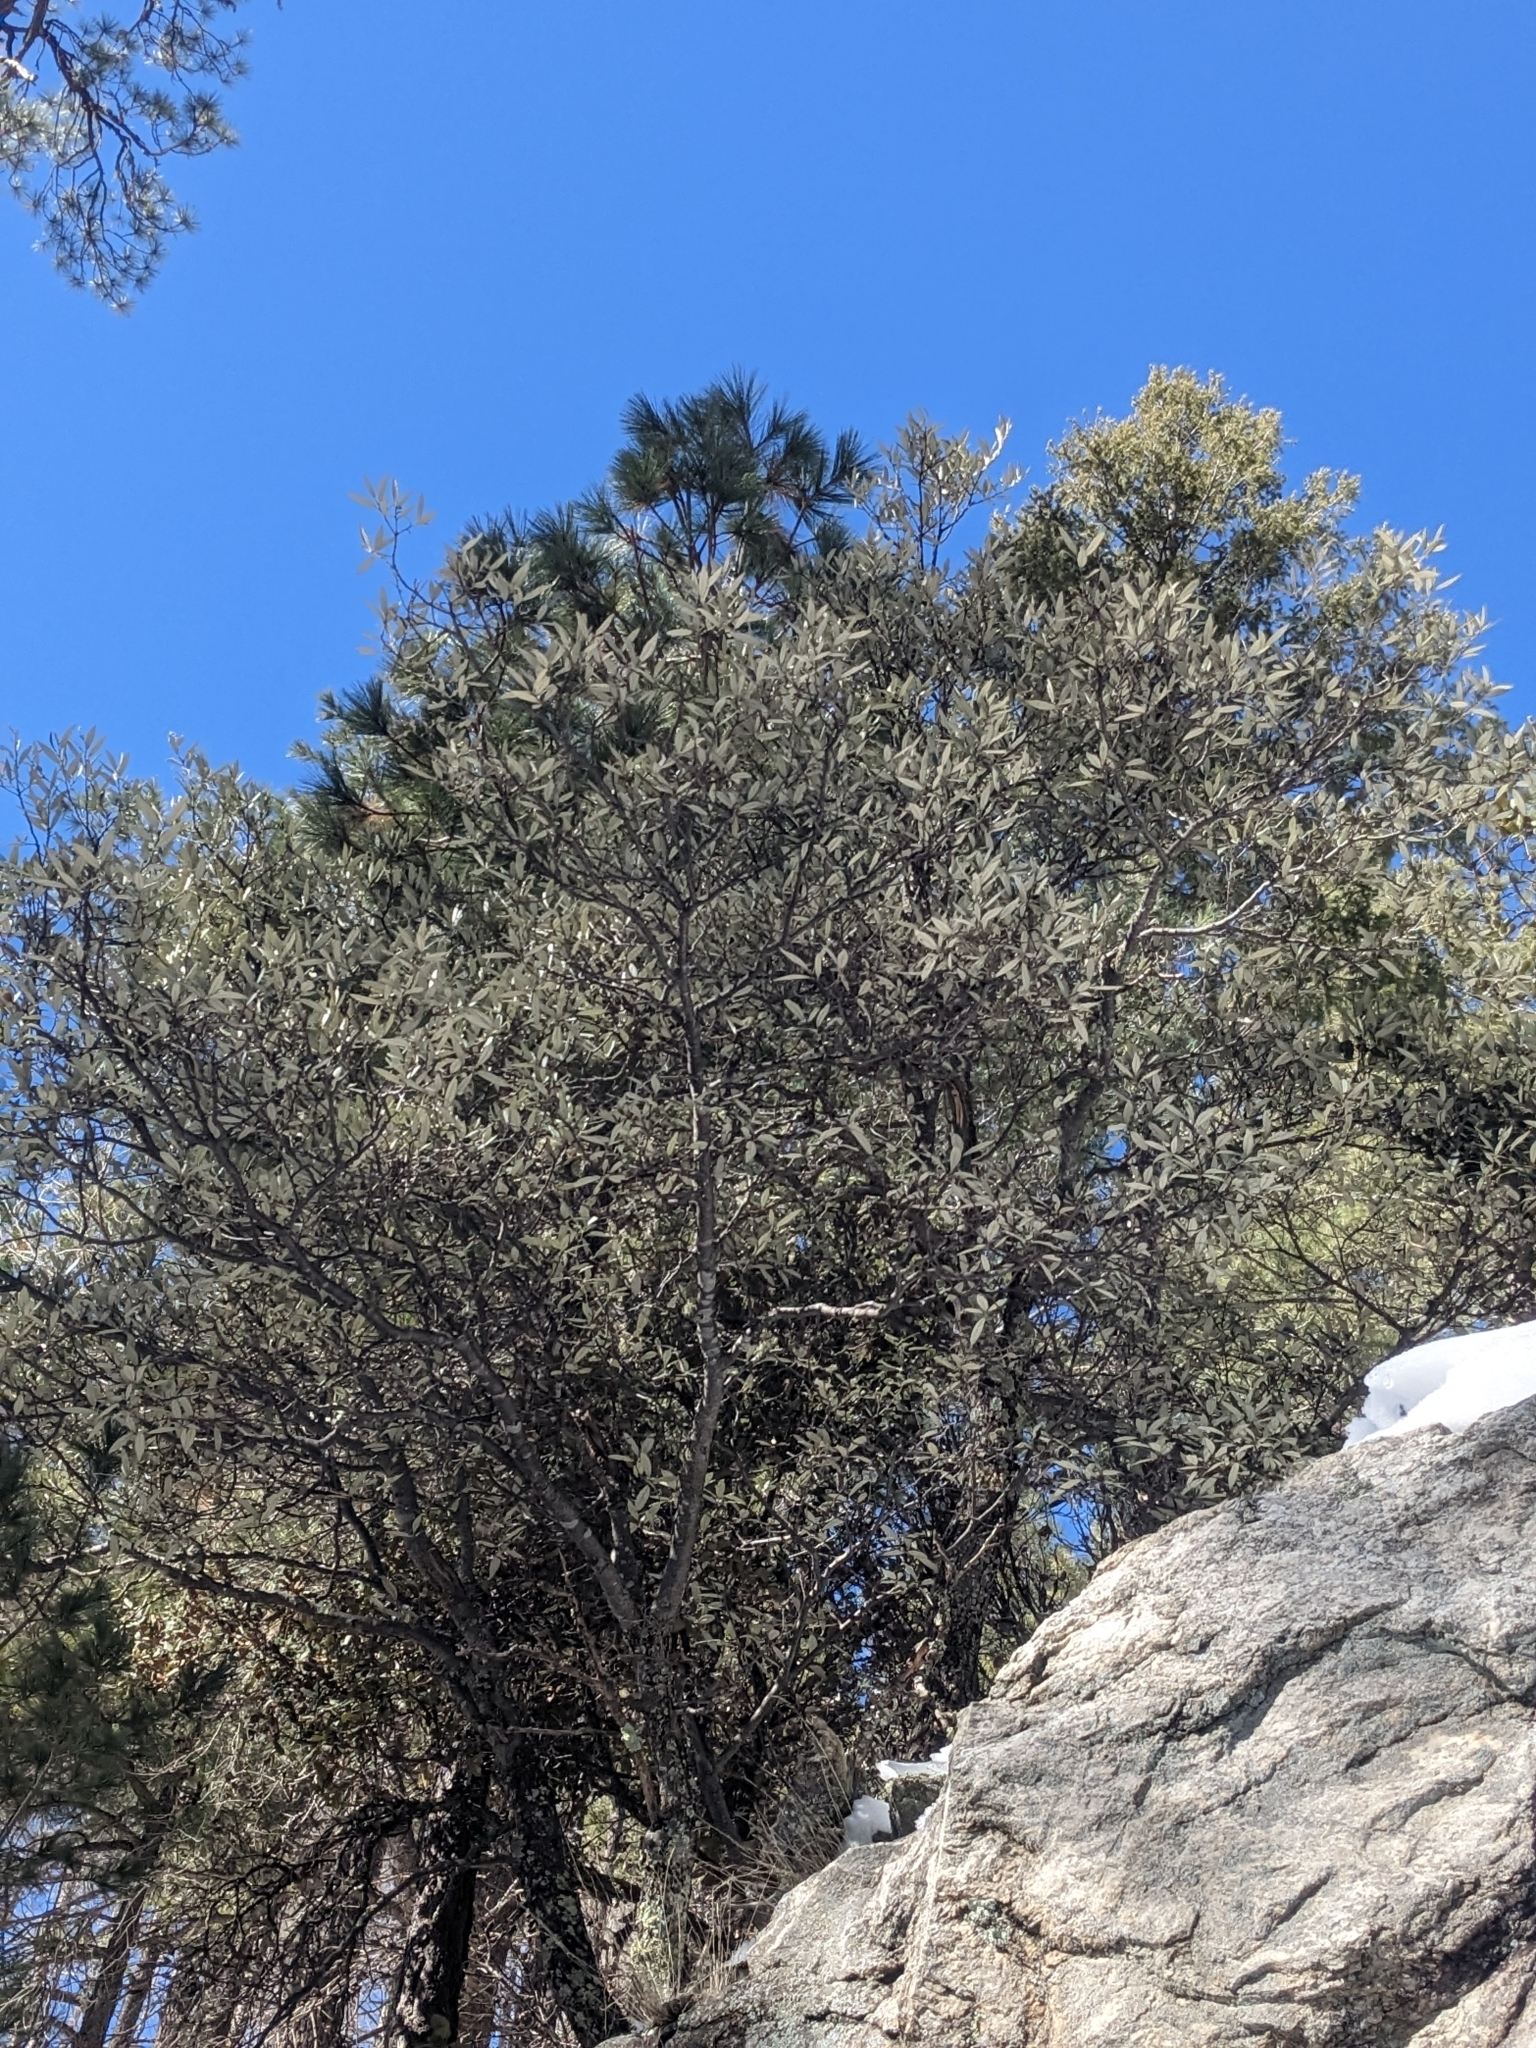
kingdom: Plantae
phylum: Tracheophyta
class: Magnoliopsida
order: Fagales
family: Fagaceae
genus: Quercus
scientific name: Quercus hypoleucoides
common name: Silverleaf oak
